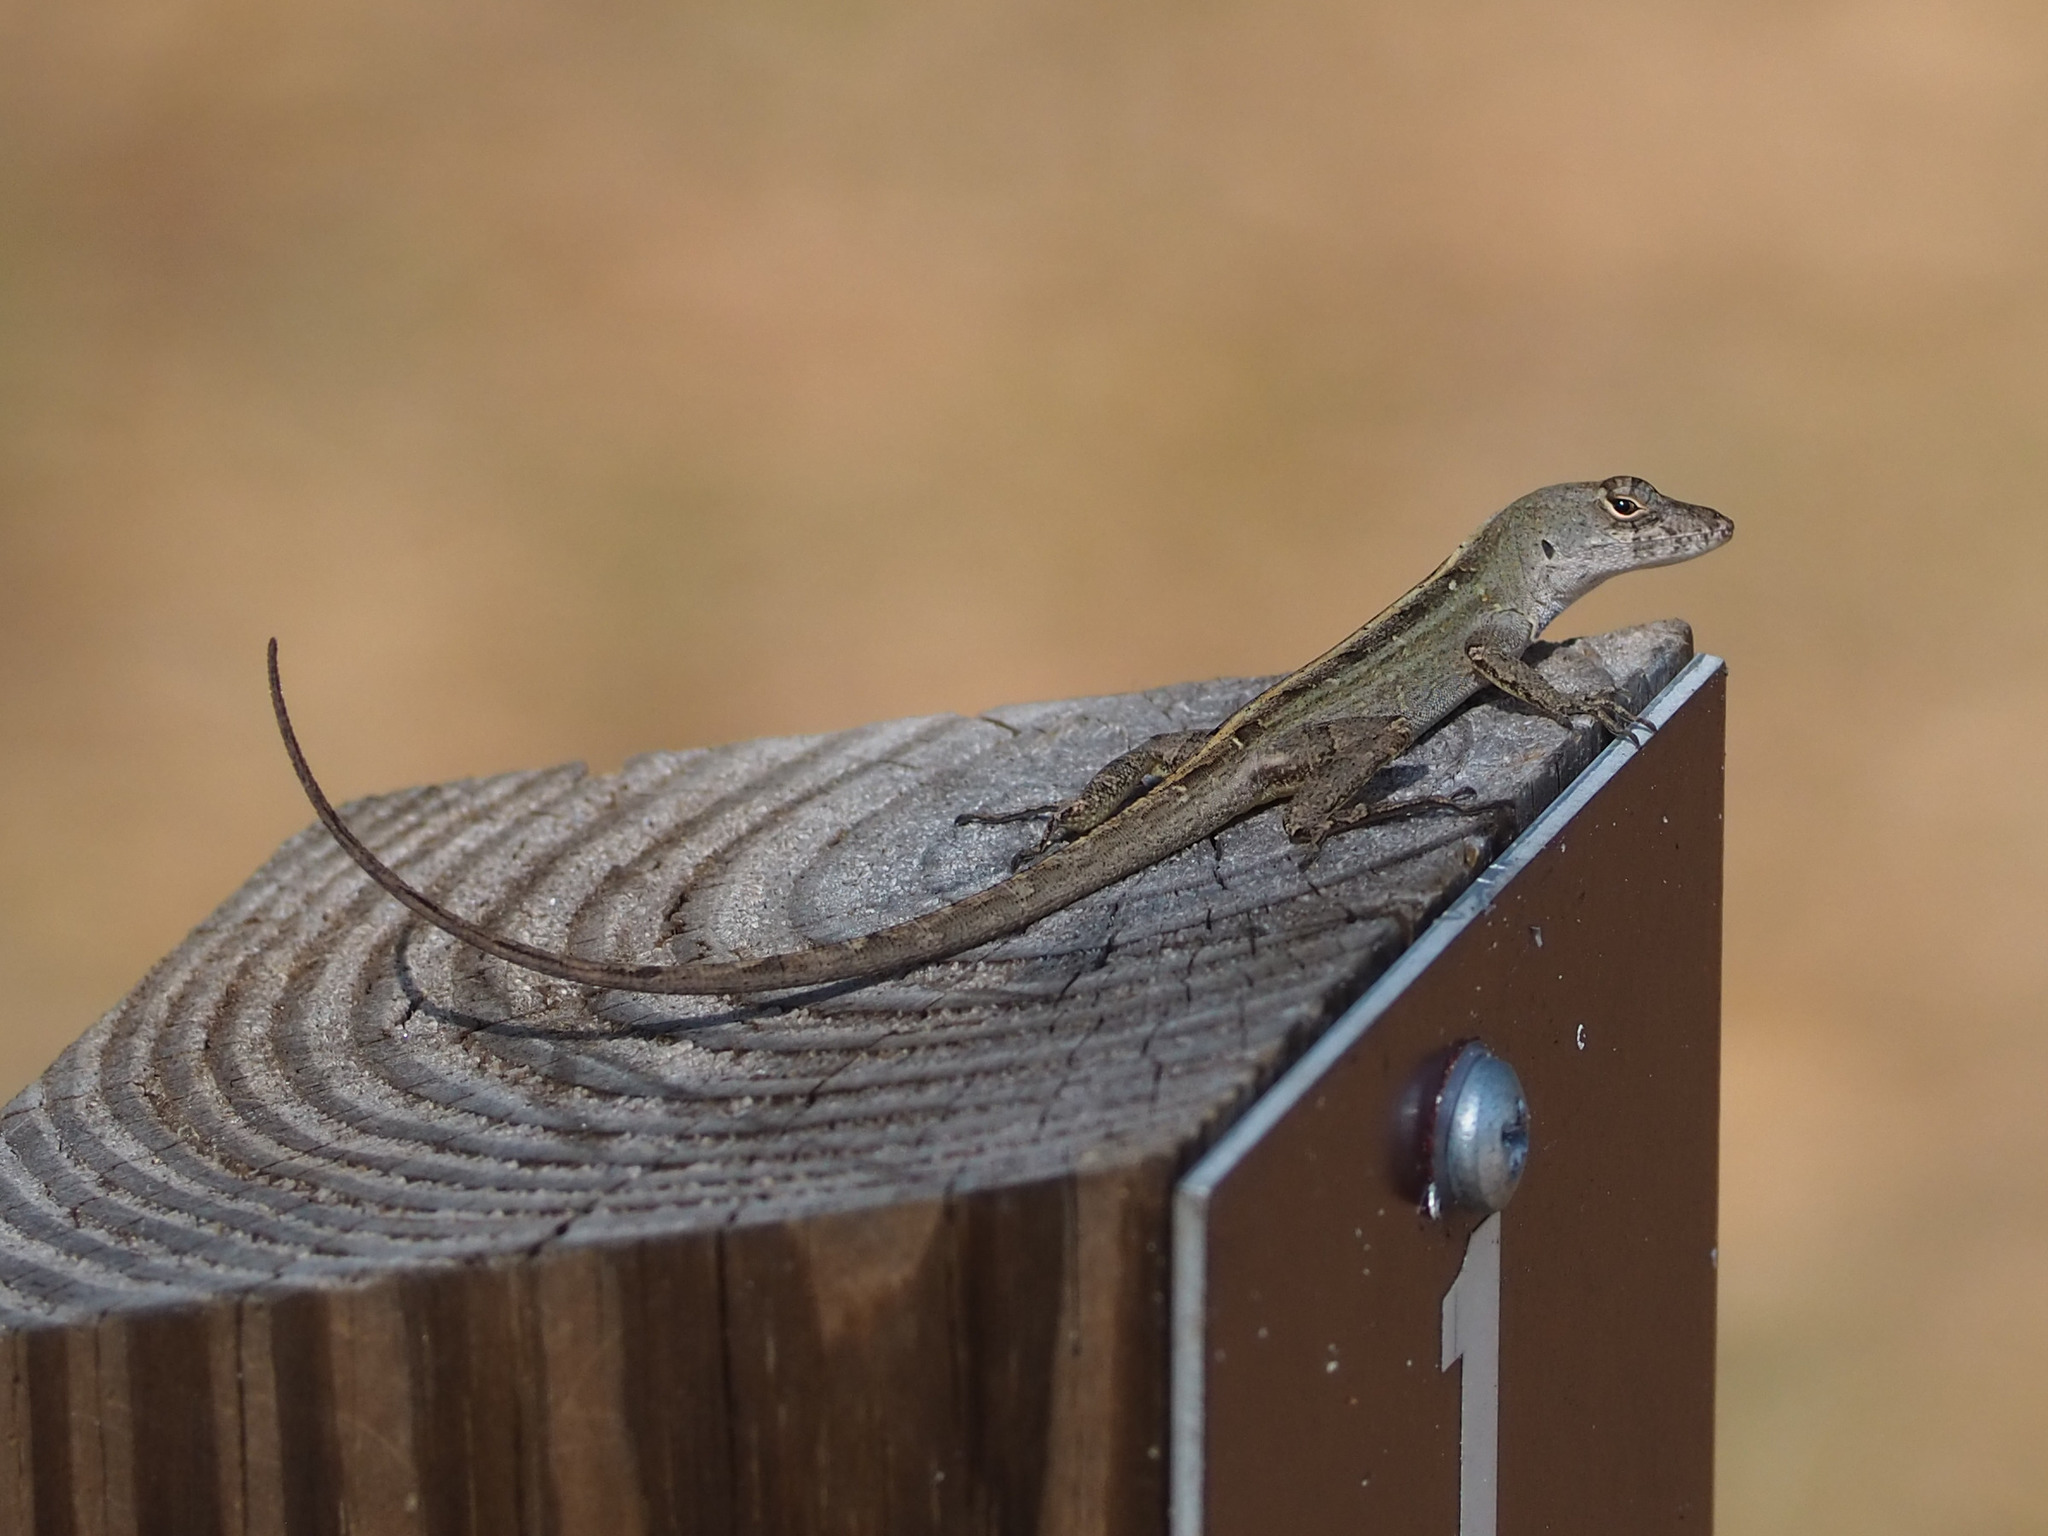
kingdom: Animalia
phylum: Chordata
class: Squamata
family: Dactyloidae
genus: Anolis
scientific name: Anolis sagrei
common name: Brown anole
